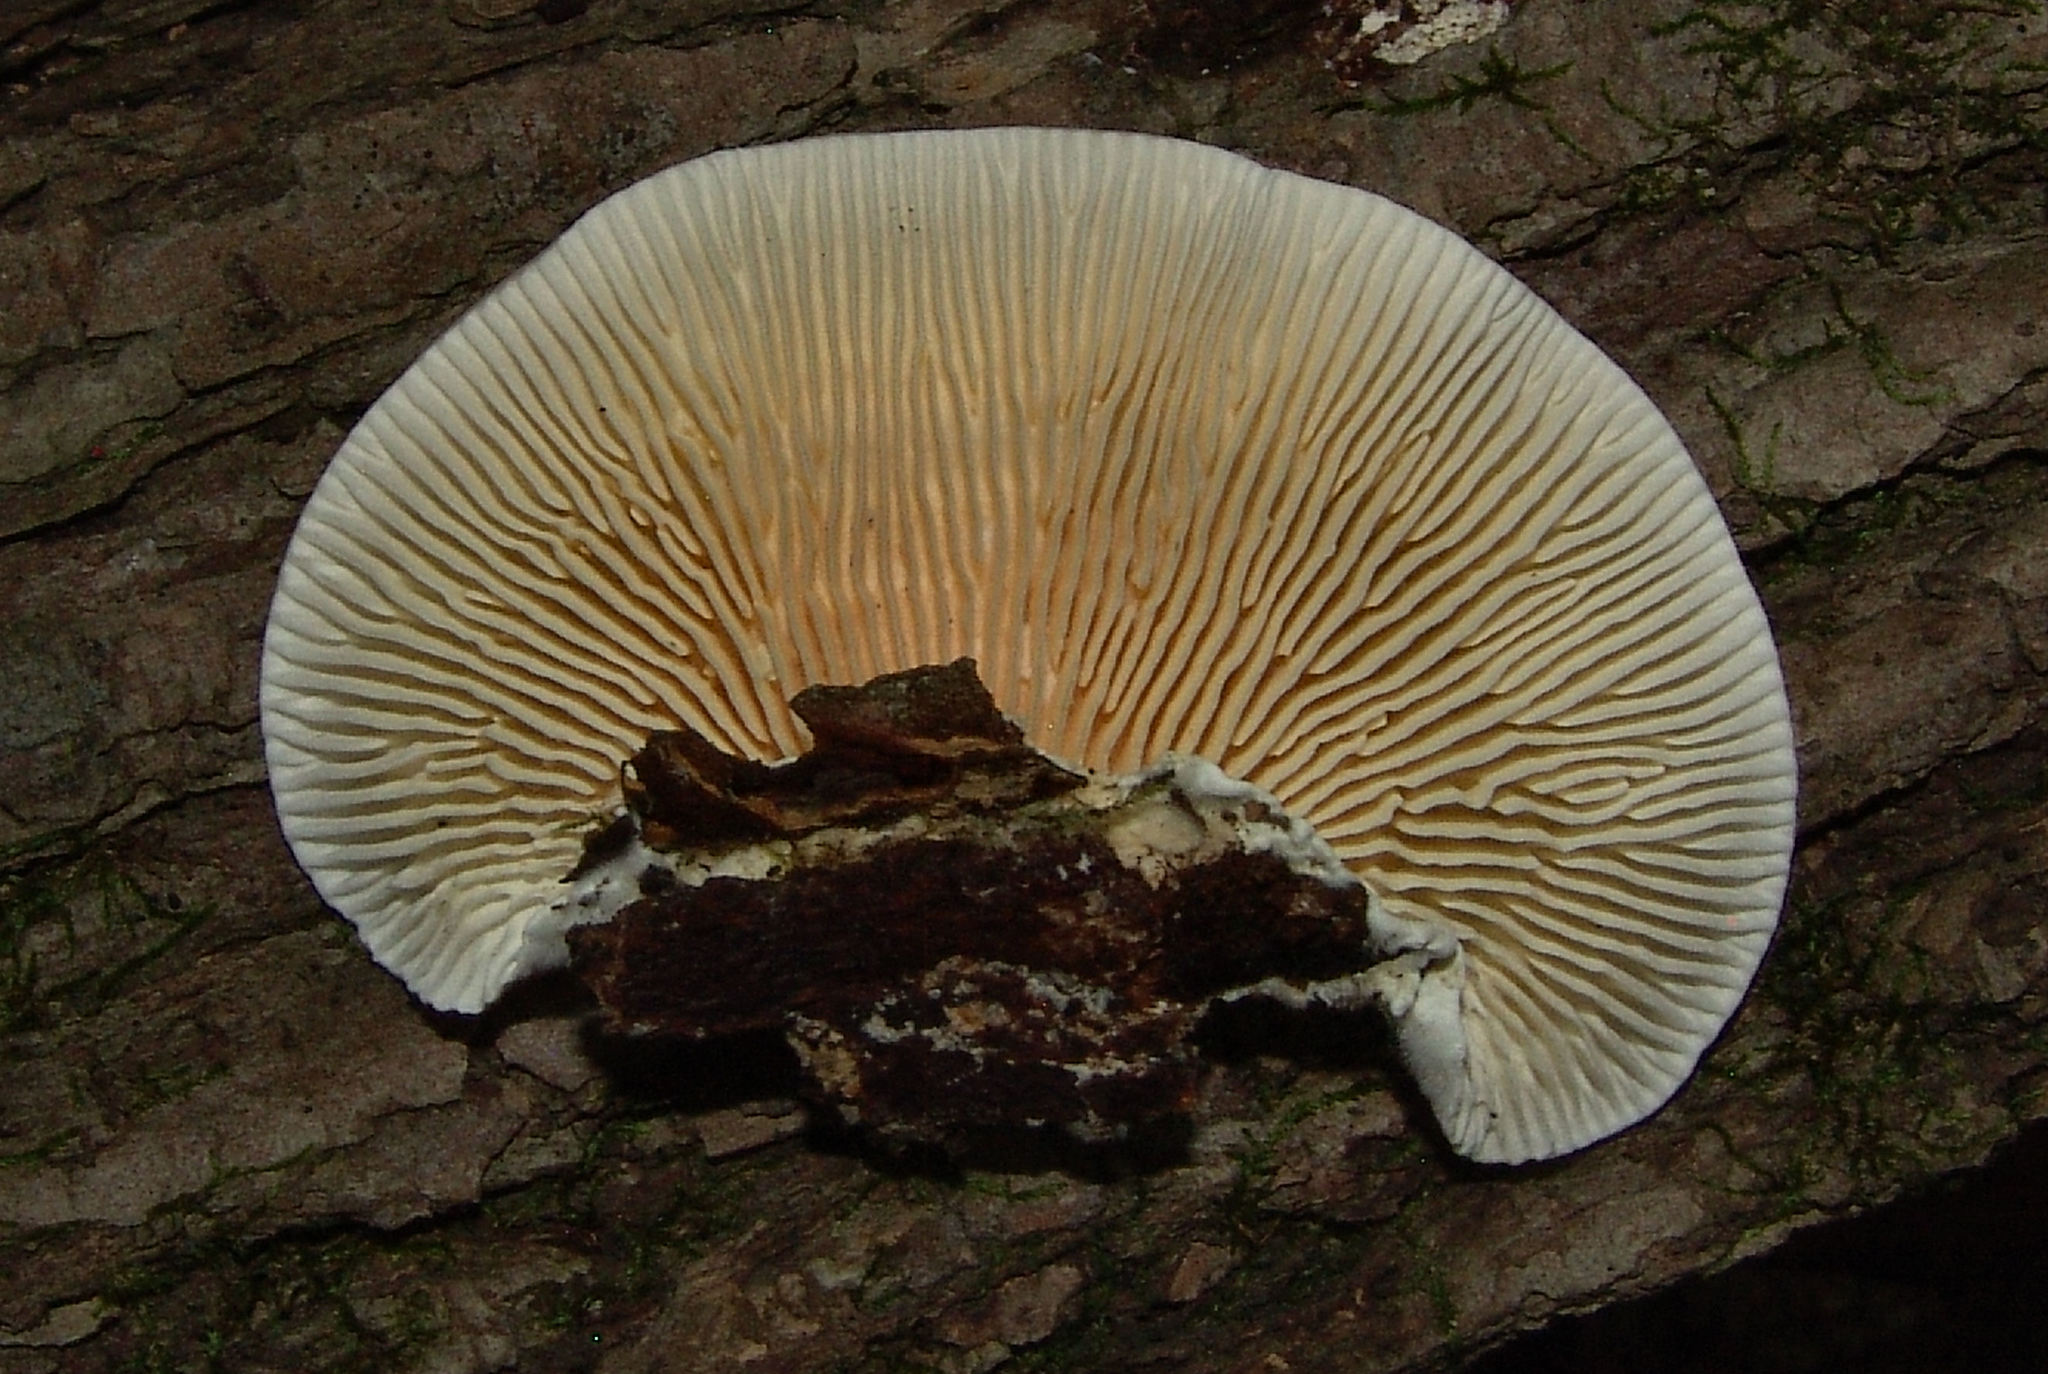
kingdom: Fungi
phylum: Basidiomycota
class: Agaricomycetes
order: Polyporales
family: Polyporaceae
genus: Lenzites
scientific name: Lenzites betulinus
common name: Birch mazegill
